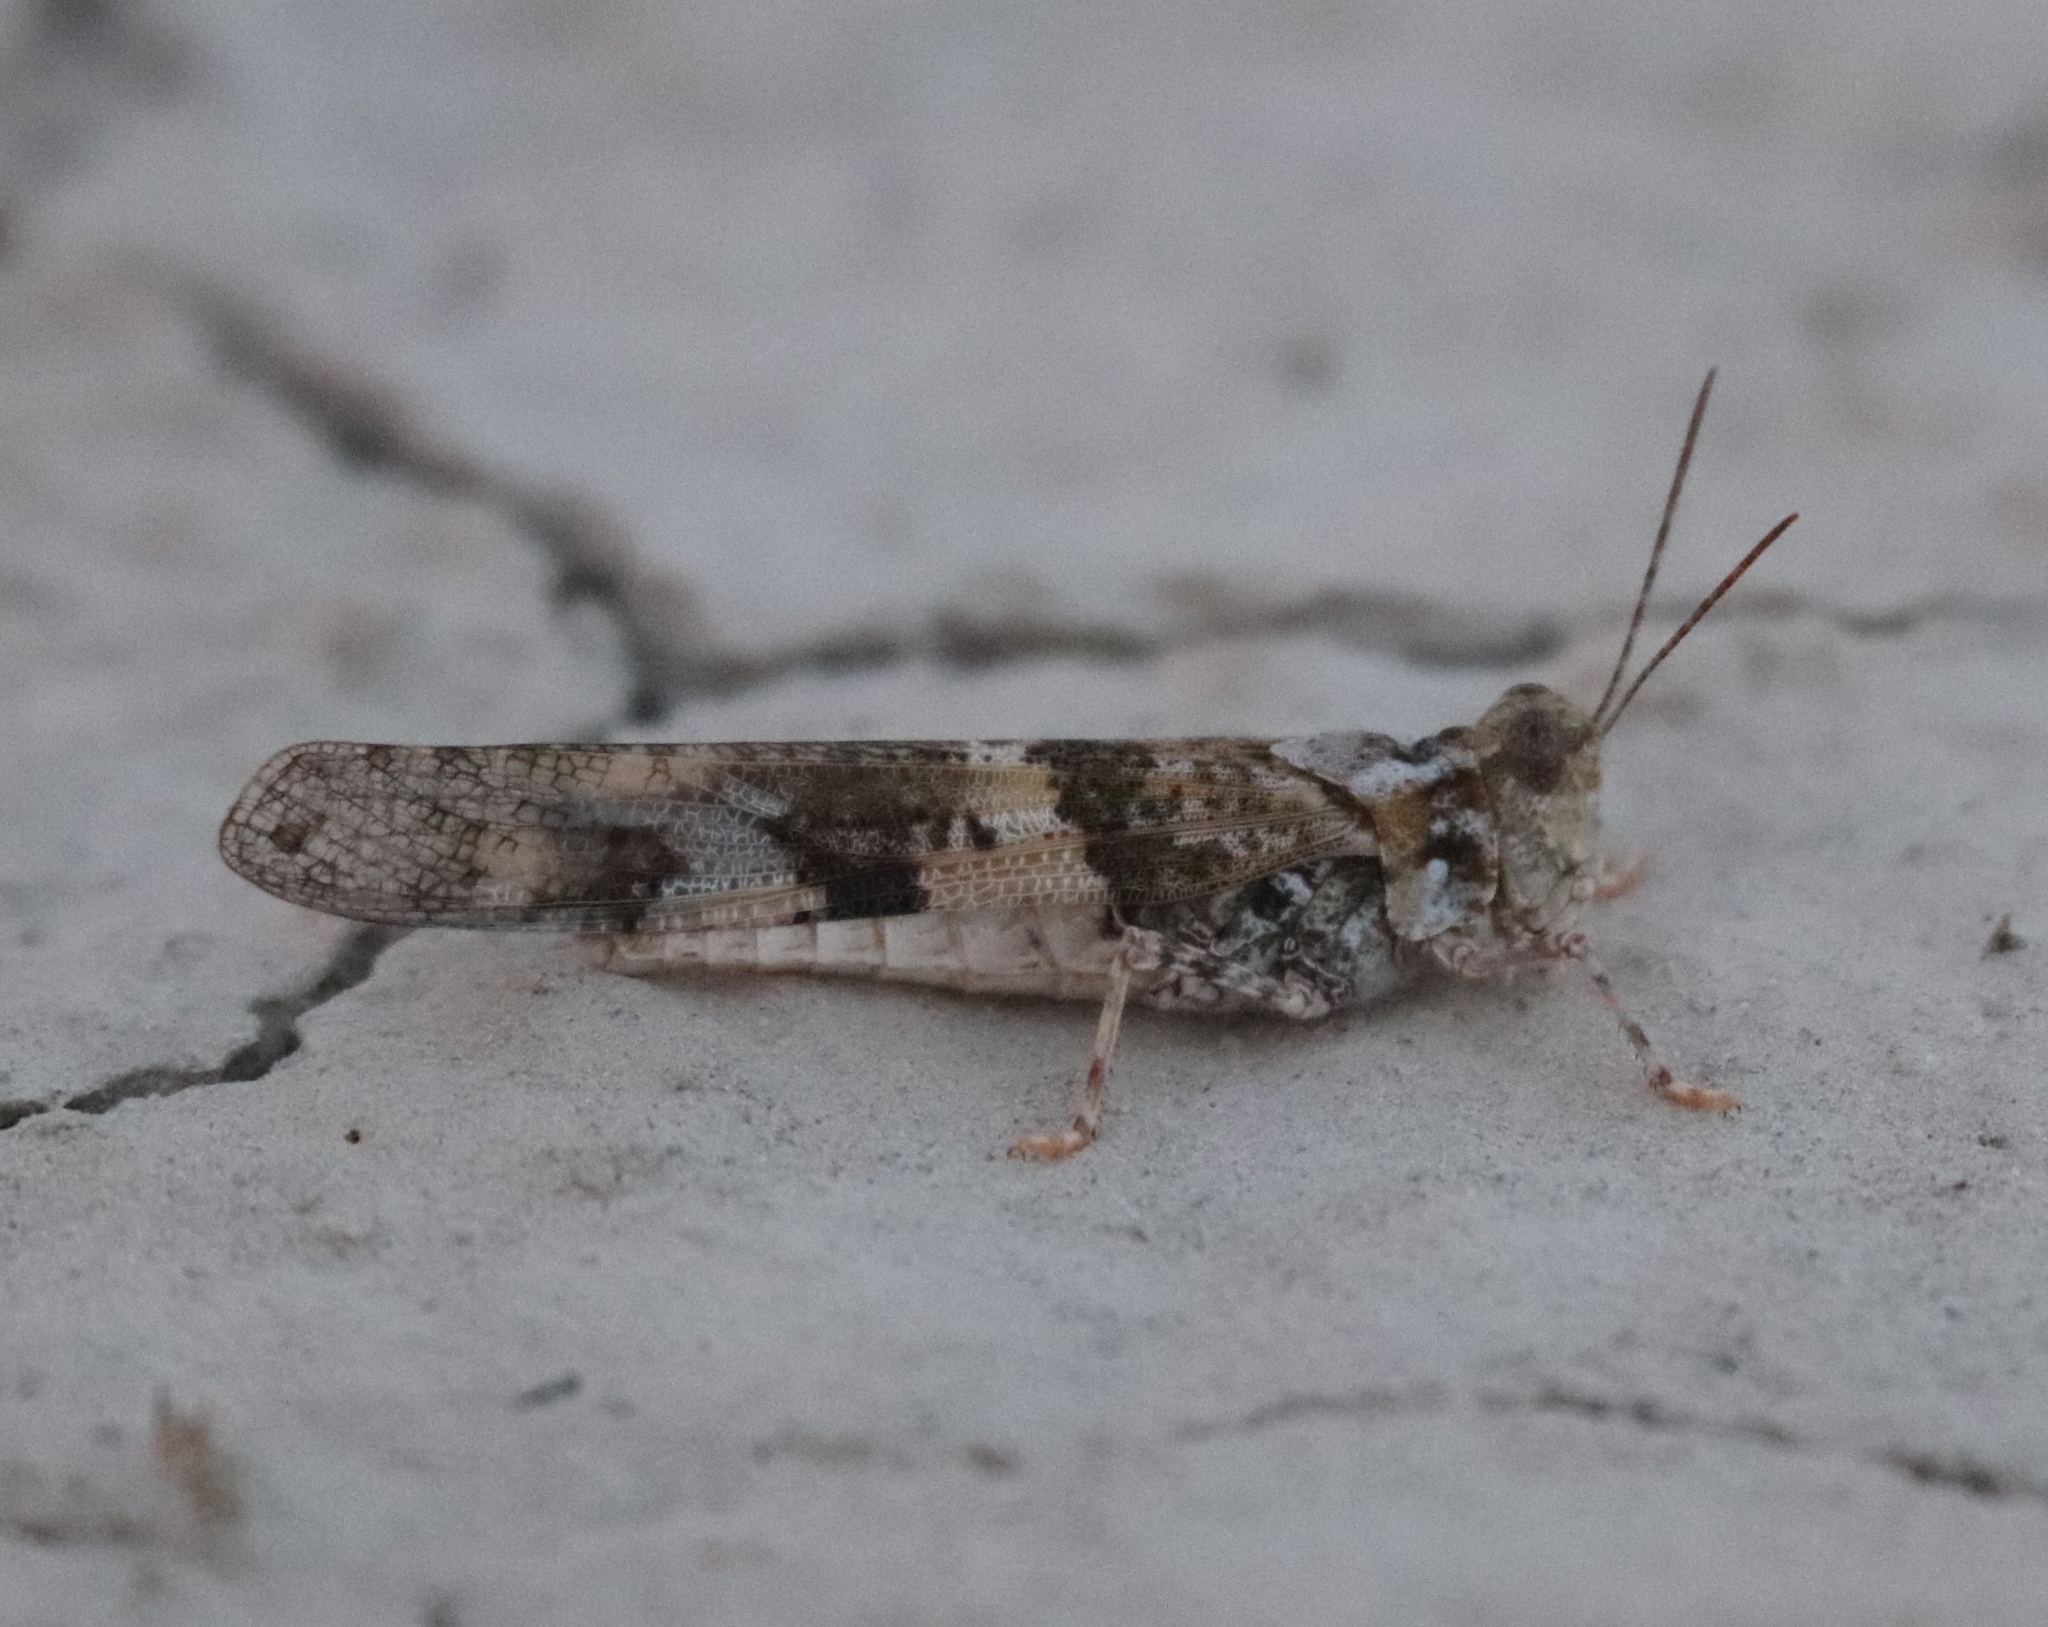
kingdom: Animalia
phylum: Arthropoda
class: Insecta
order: Orthoptera
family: Acrididae
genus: Trimerotropis
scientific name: Trimerotropis pallidipennis
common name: Pallid-winged grasshopper
